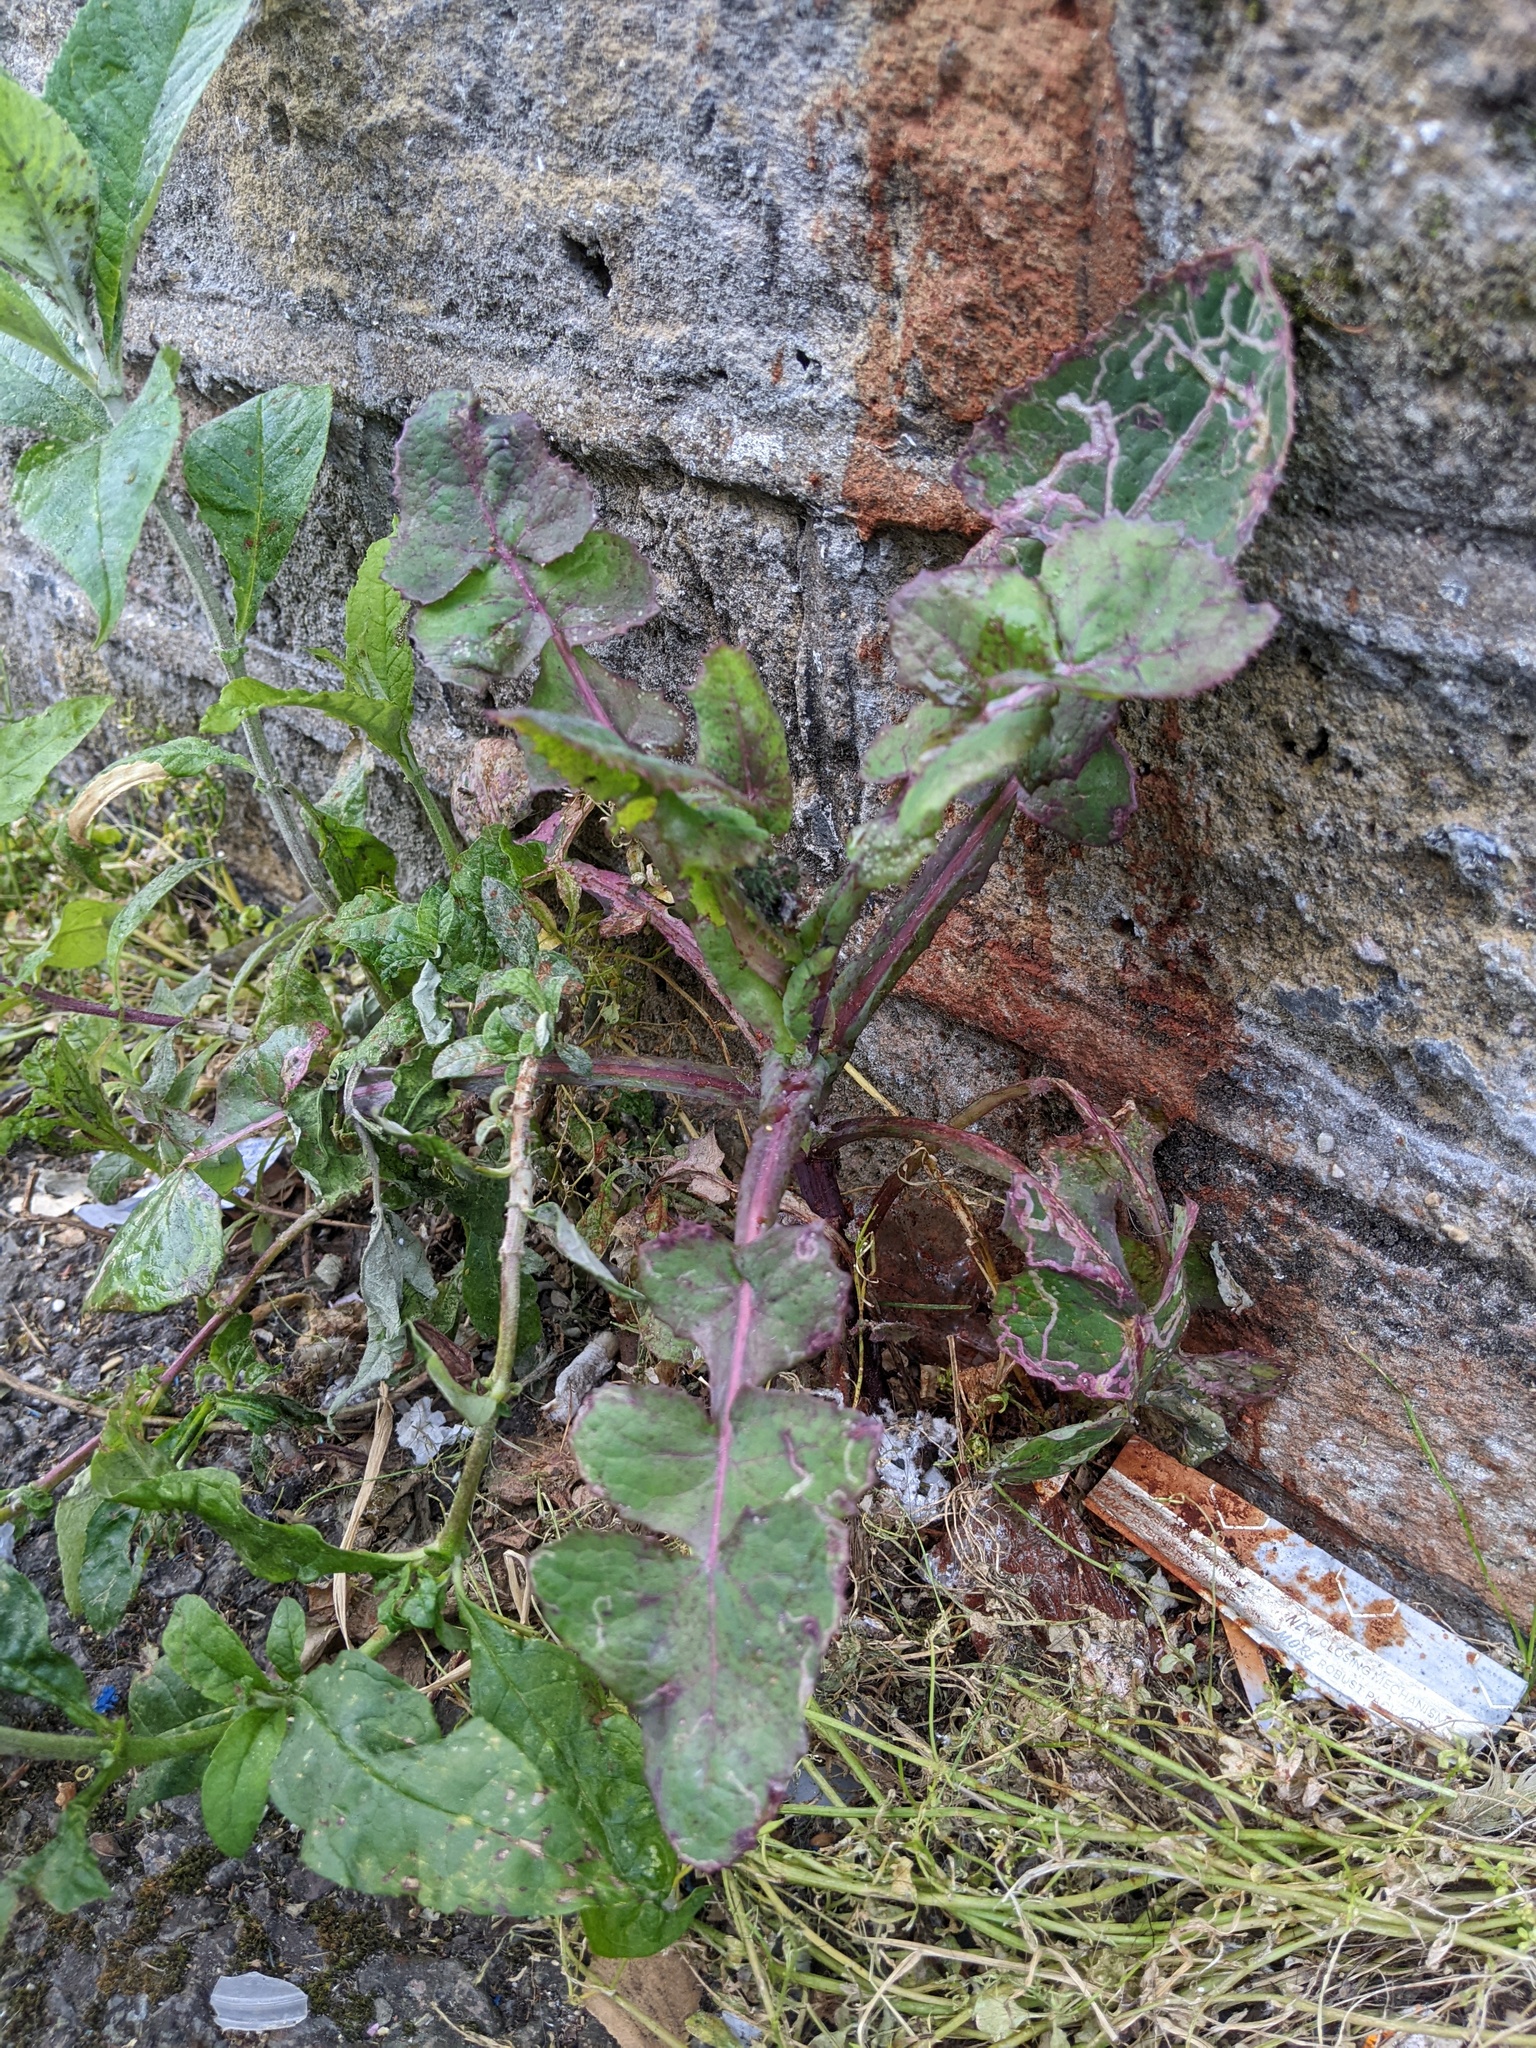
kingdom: Plantae
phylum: Tracheophyta
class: Magnoliopsida
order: Asterales
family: Asteraceae
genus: Sonchus
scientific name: Sonchus oleraceus
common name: Common sowthistle
